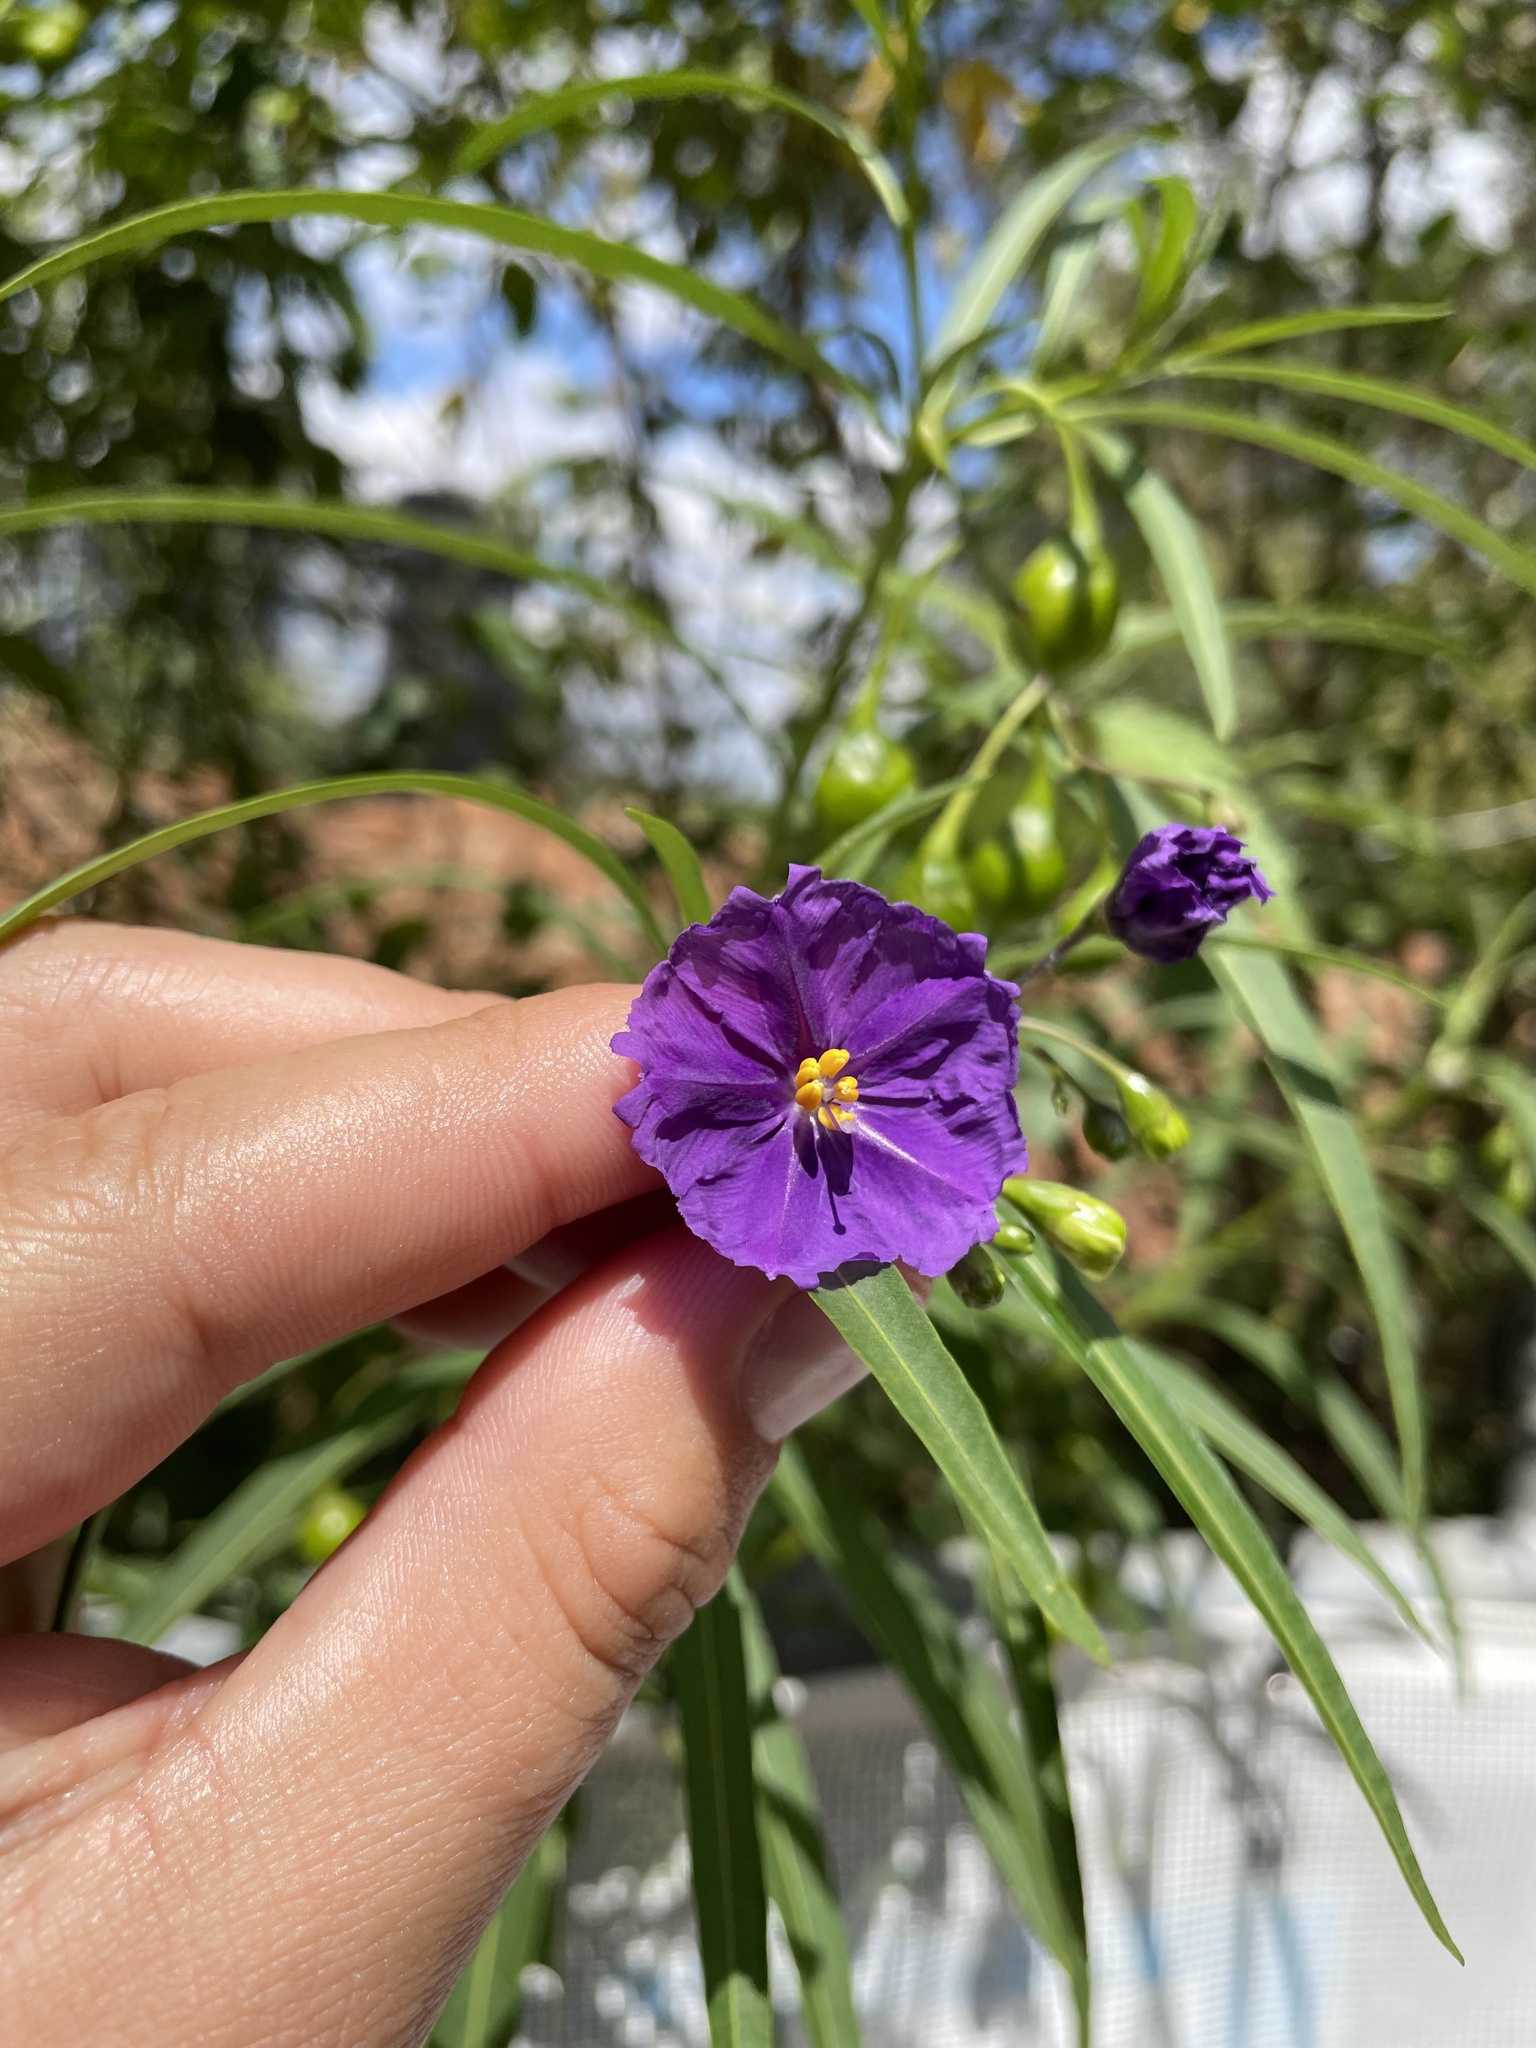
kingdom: Plantae
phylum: Tracheophyta
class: Magnoliopsida
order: Solanales
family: Solanaceae
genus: Solanum
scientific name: Solanum linearifolium
